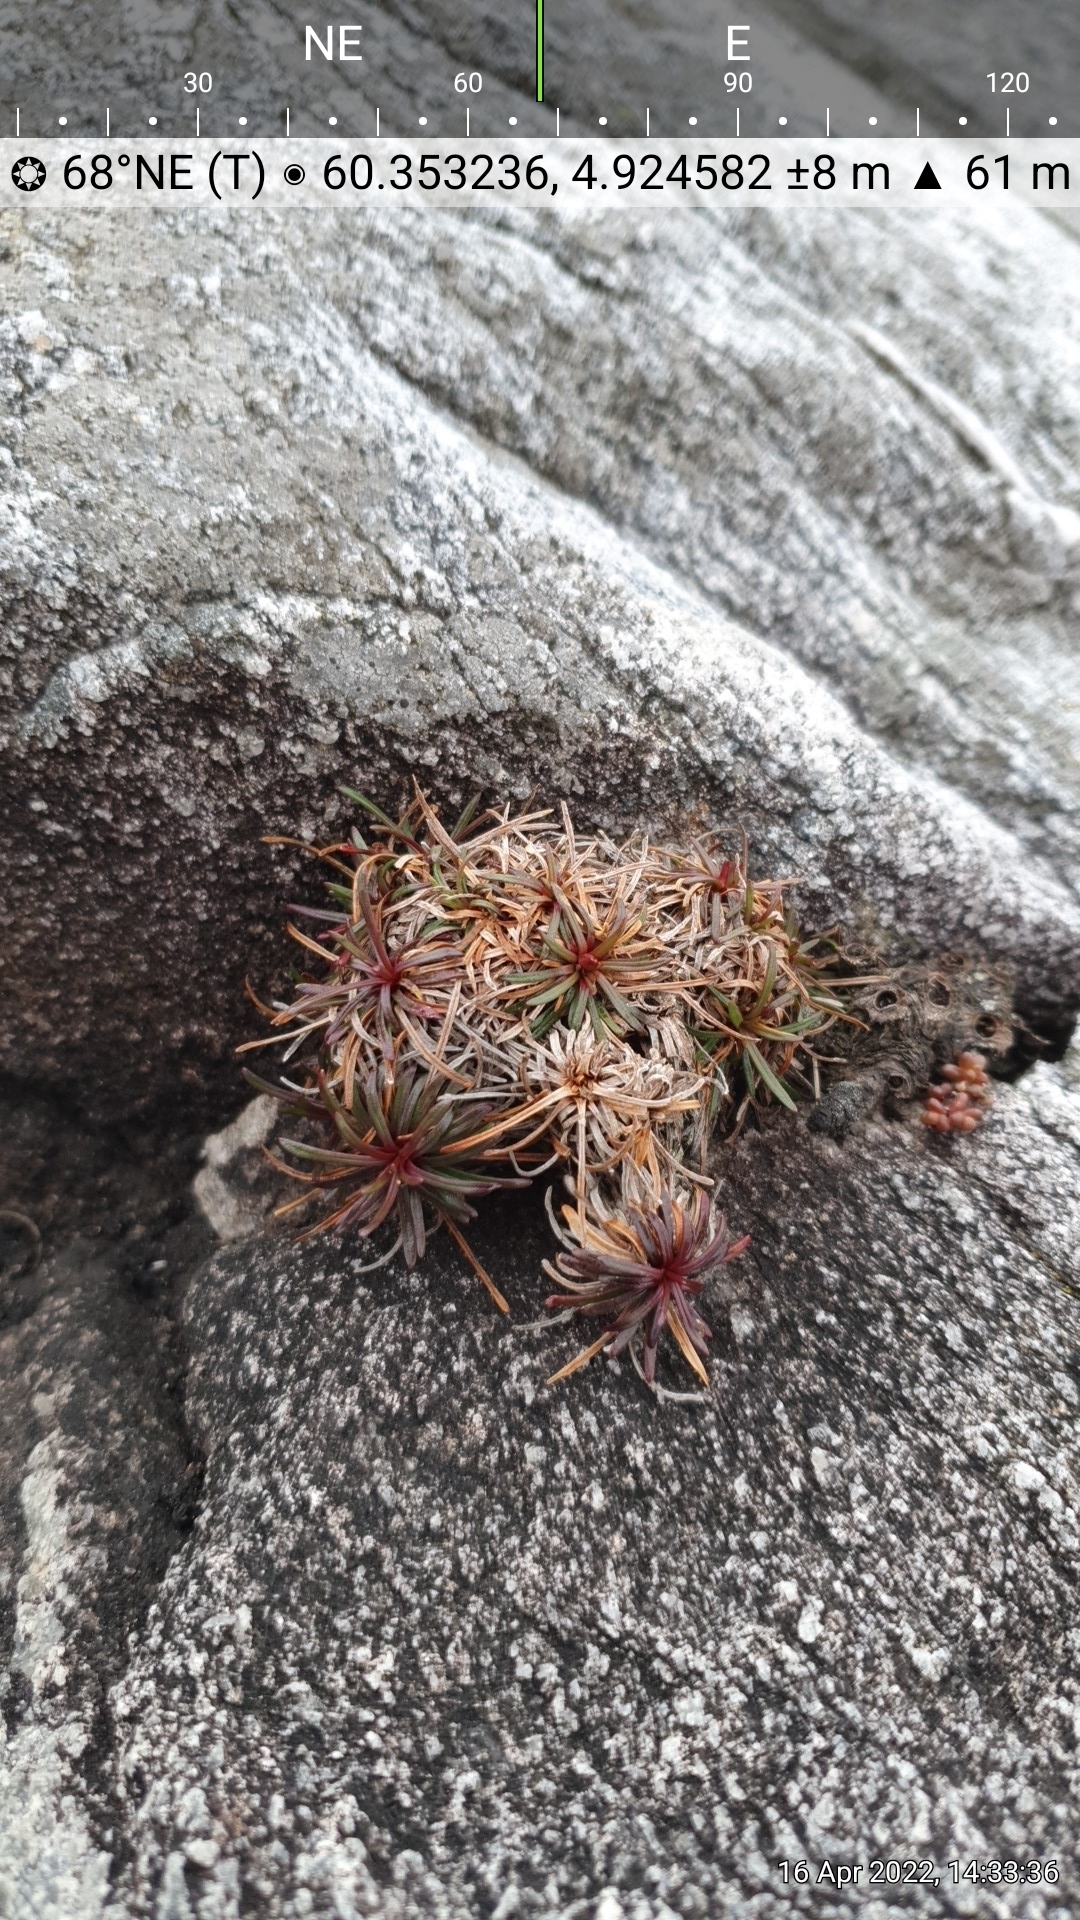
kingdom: Plantae
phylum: Tracheophyta
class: Magnoliopsida
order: Caryophyllales
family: Plumbaginaceae
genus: Armeria
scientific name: Armeria maritima
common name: Thrift
